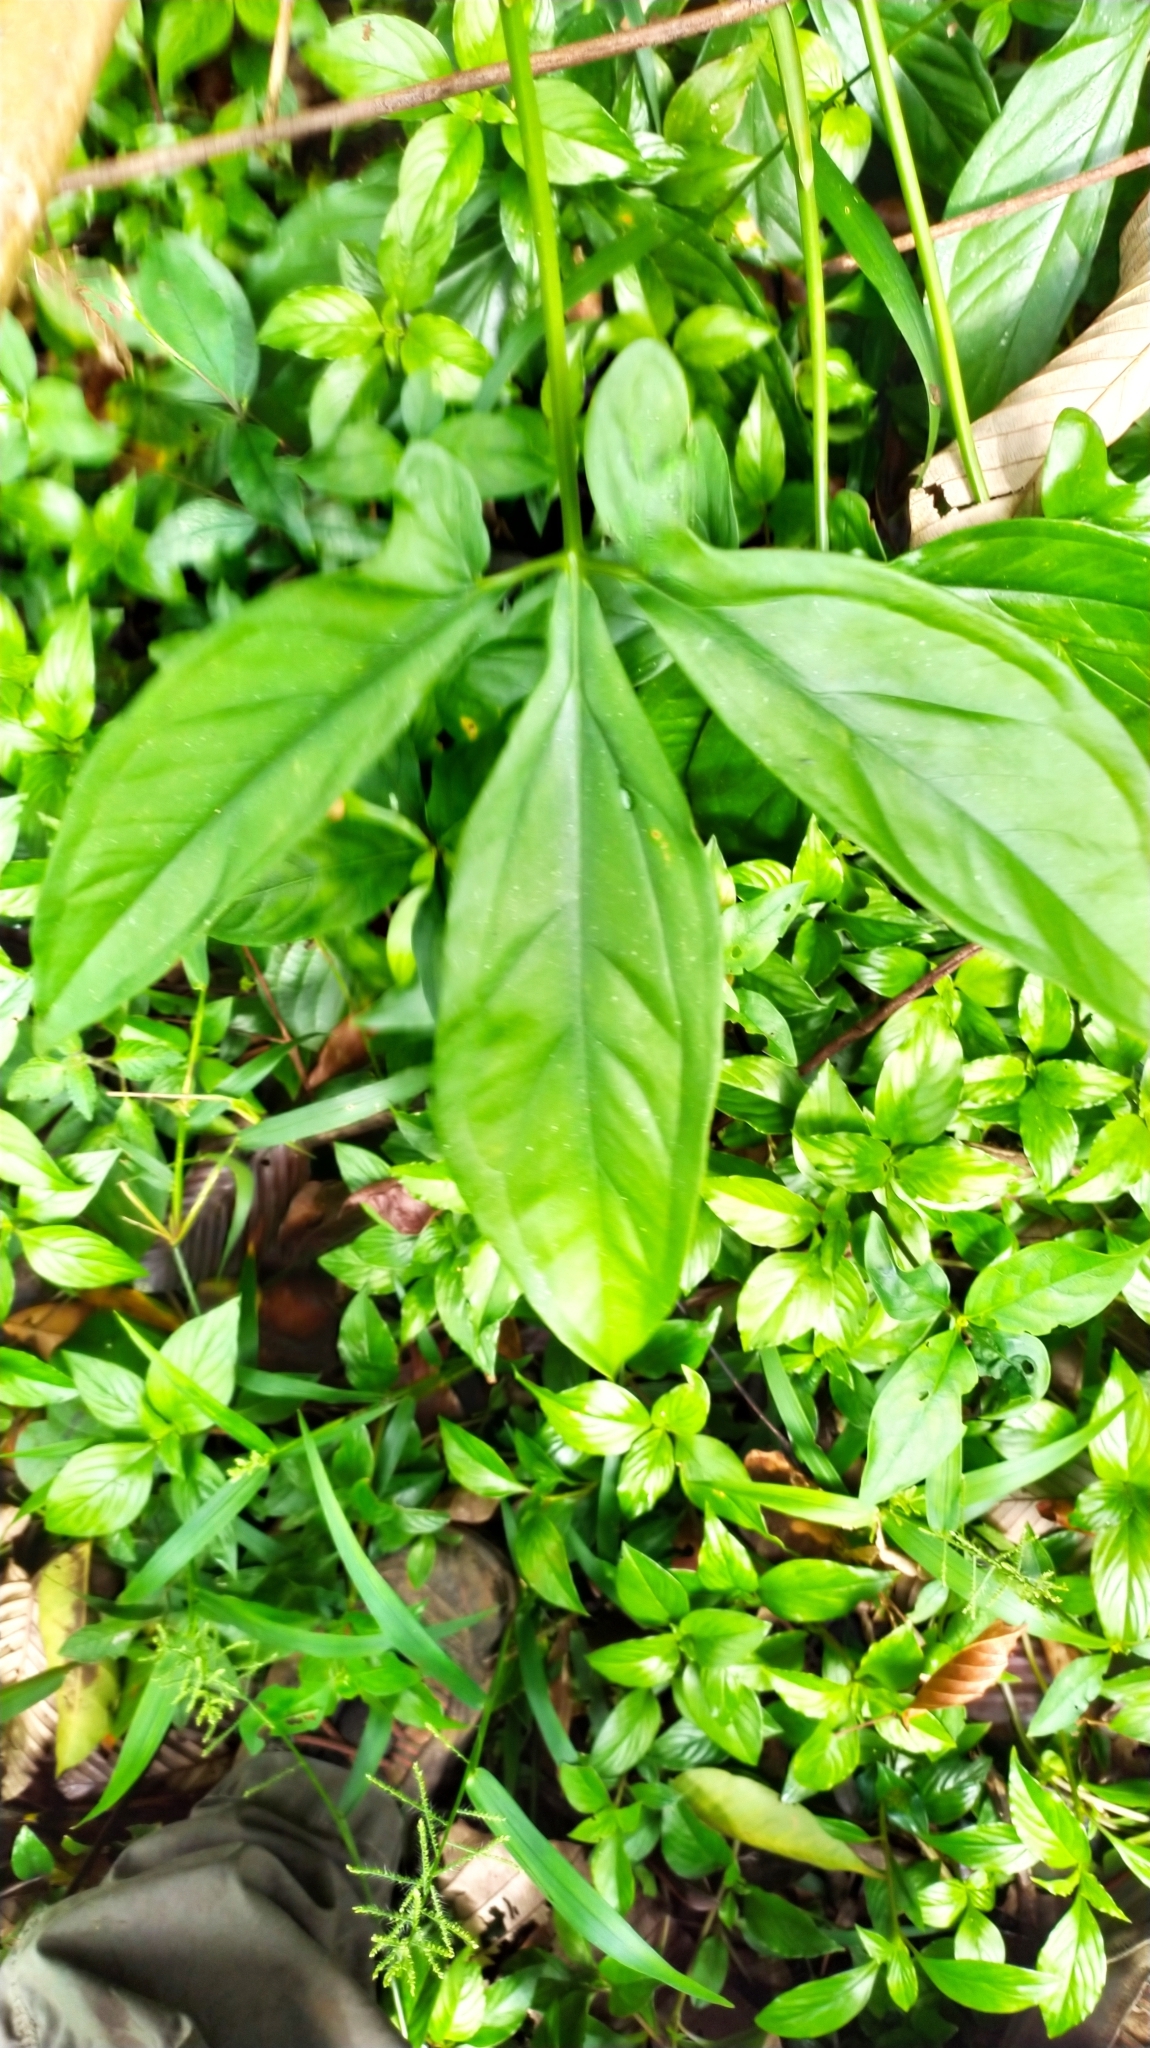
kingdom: Plantae
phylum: Tracheophyta
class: Liliopsida
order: Alismatales
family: Araceae
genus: Syngonium
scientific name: Syngonium podophyllum
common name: American evergreen
